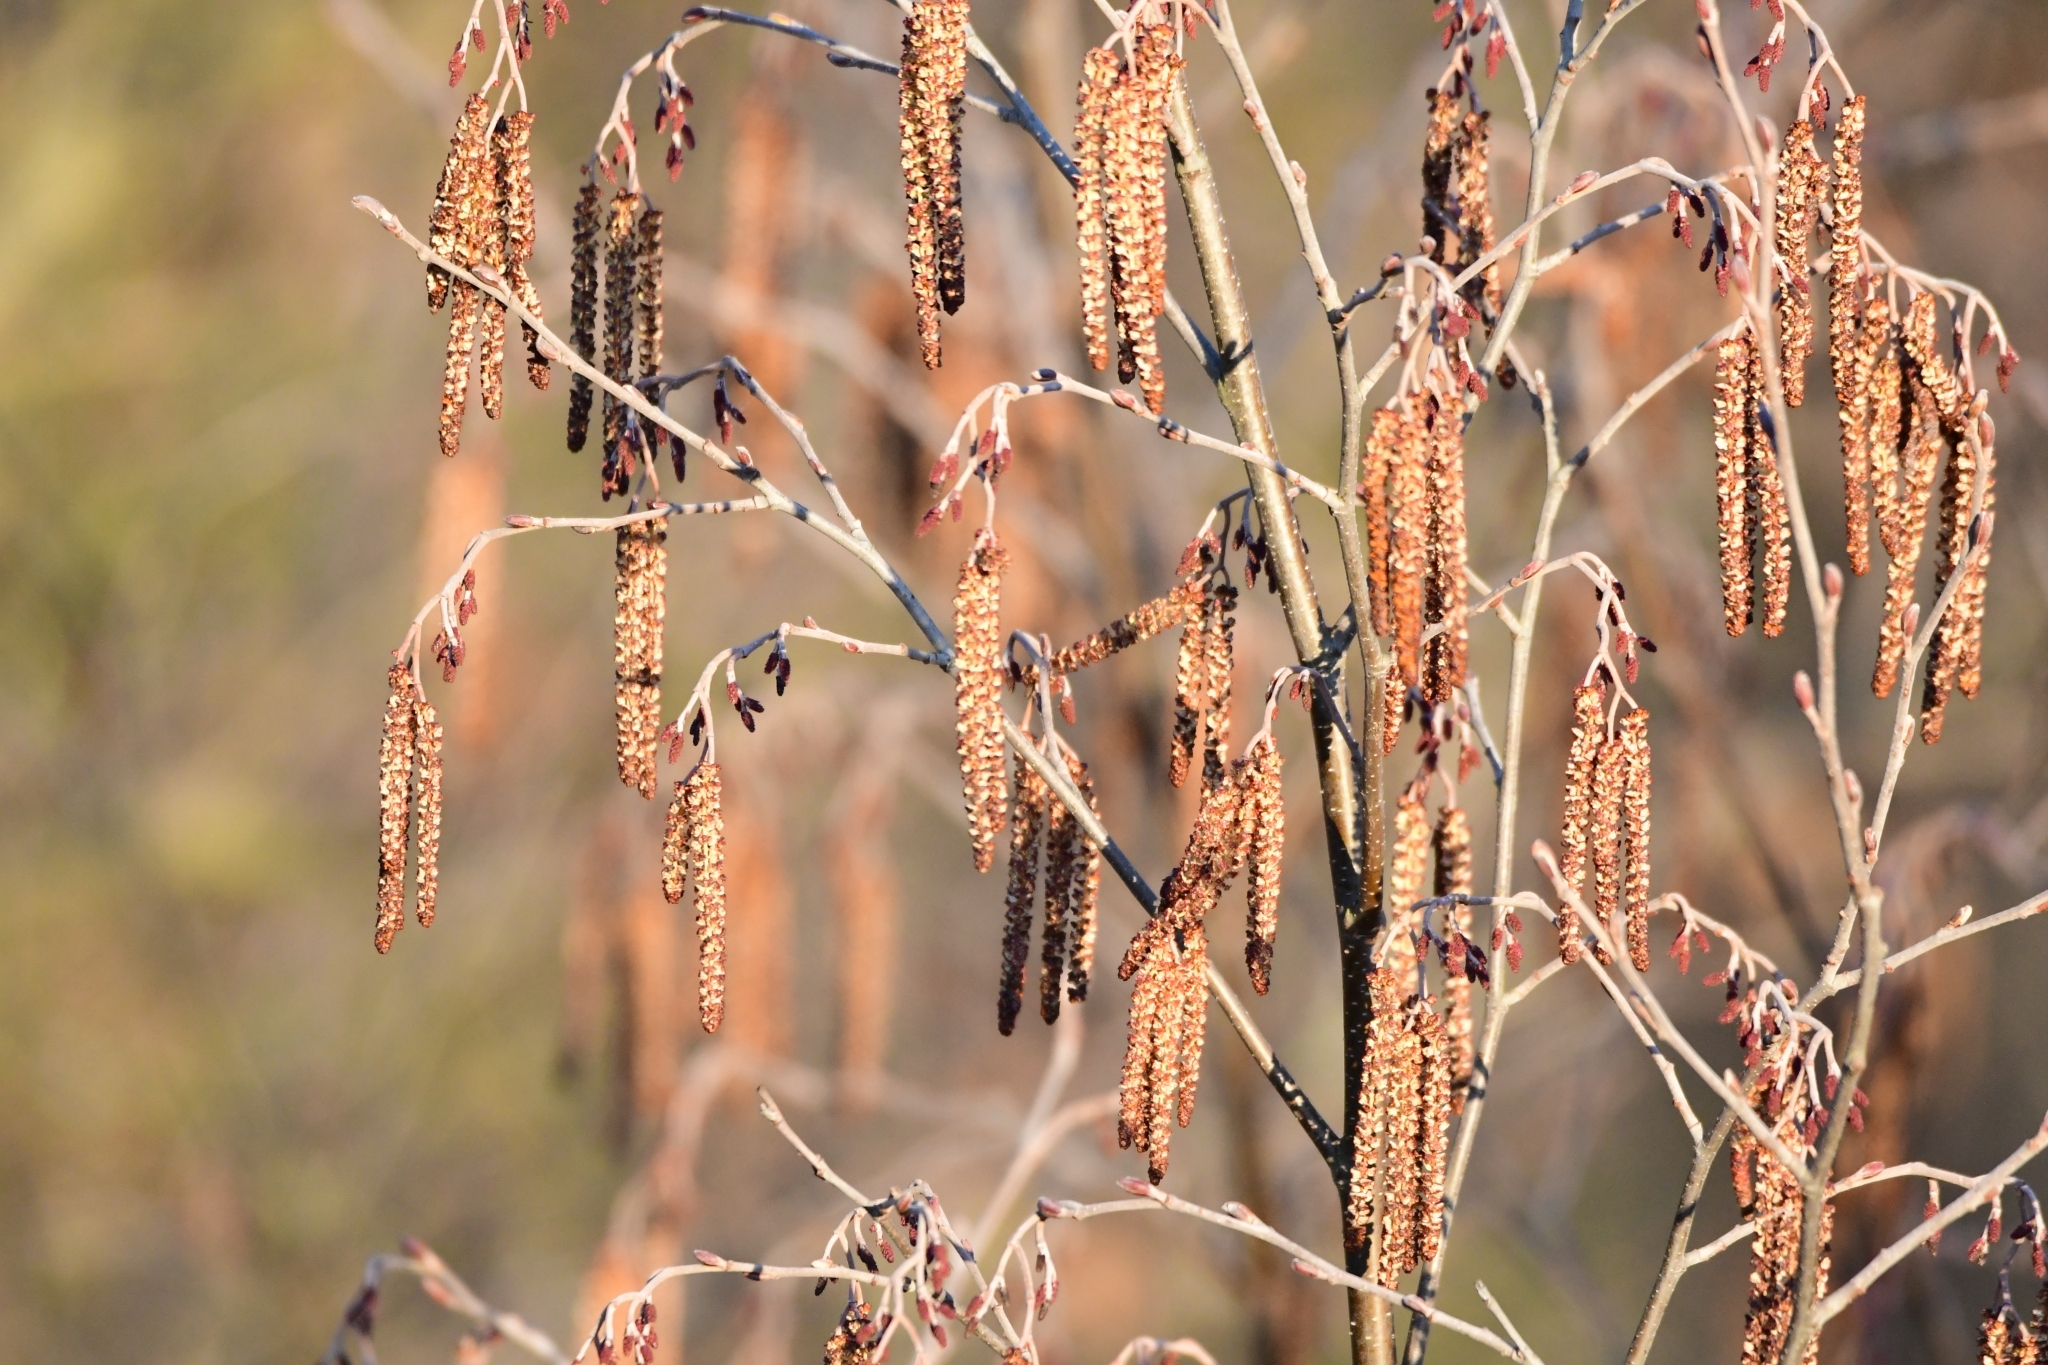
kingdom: Plantae
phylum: Tracheophyta
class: Magnoliopsida
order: Fagales
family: Betulaceae
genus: Betula
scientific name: Betula pendula
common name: Silver birch
